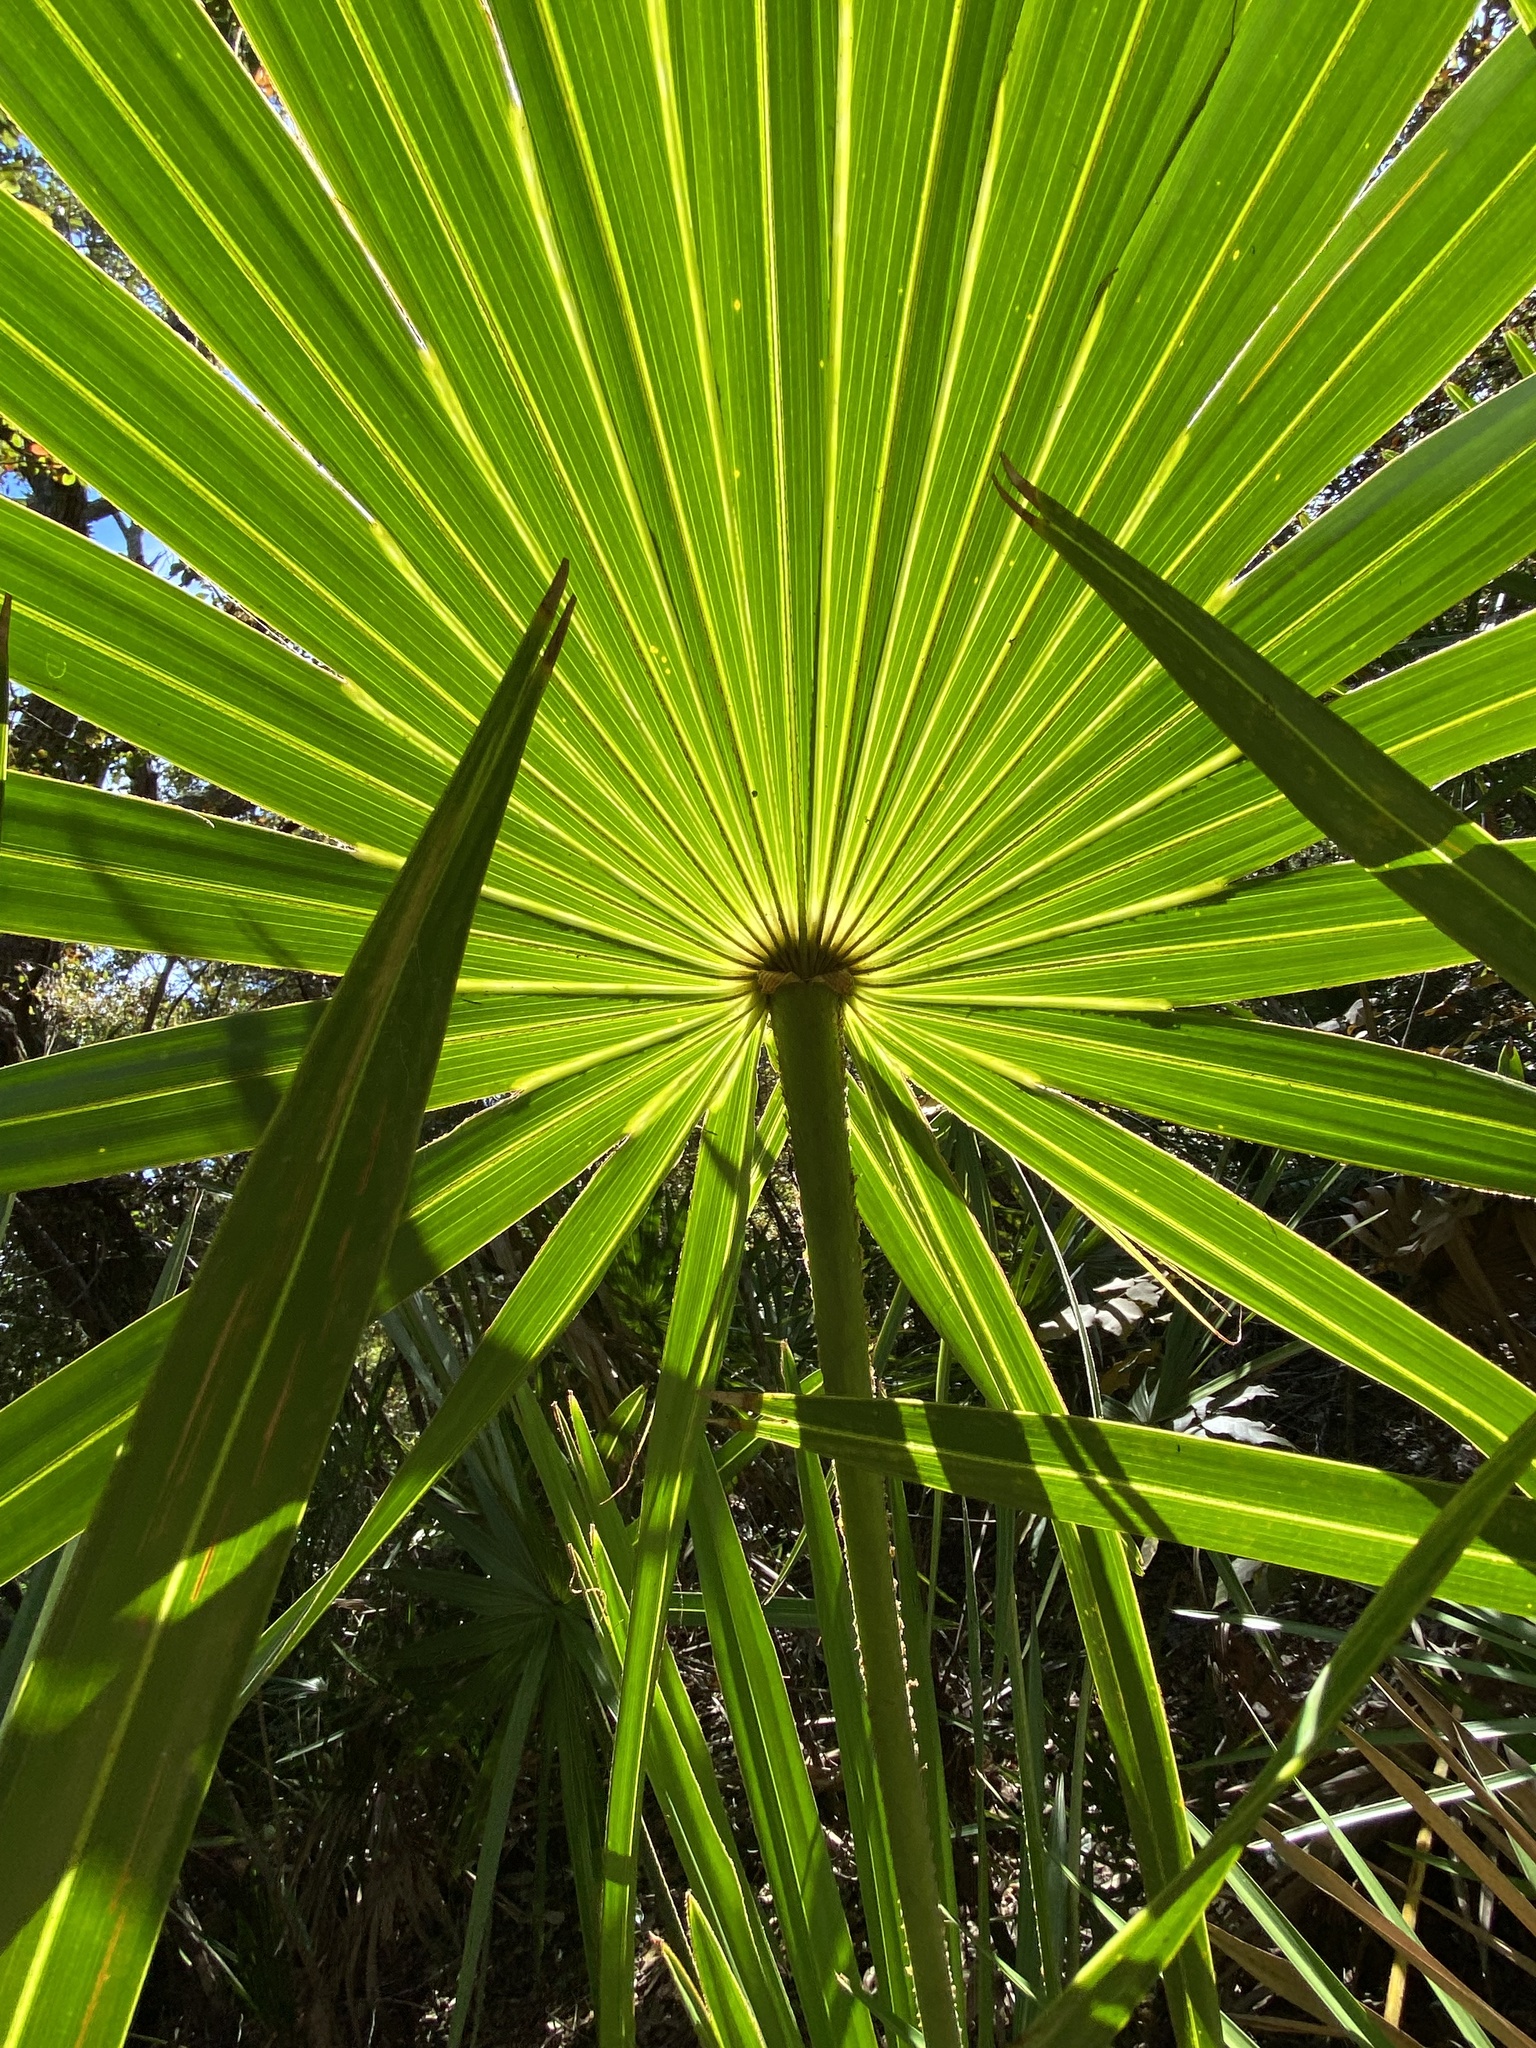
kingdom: Plantae
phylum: Tracheophyta
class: Liliopsida
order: Arecales
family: Arecaceae
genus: Serenoa
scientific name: Serenoa repens
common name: Saw-palmetto
